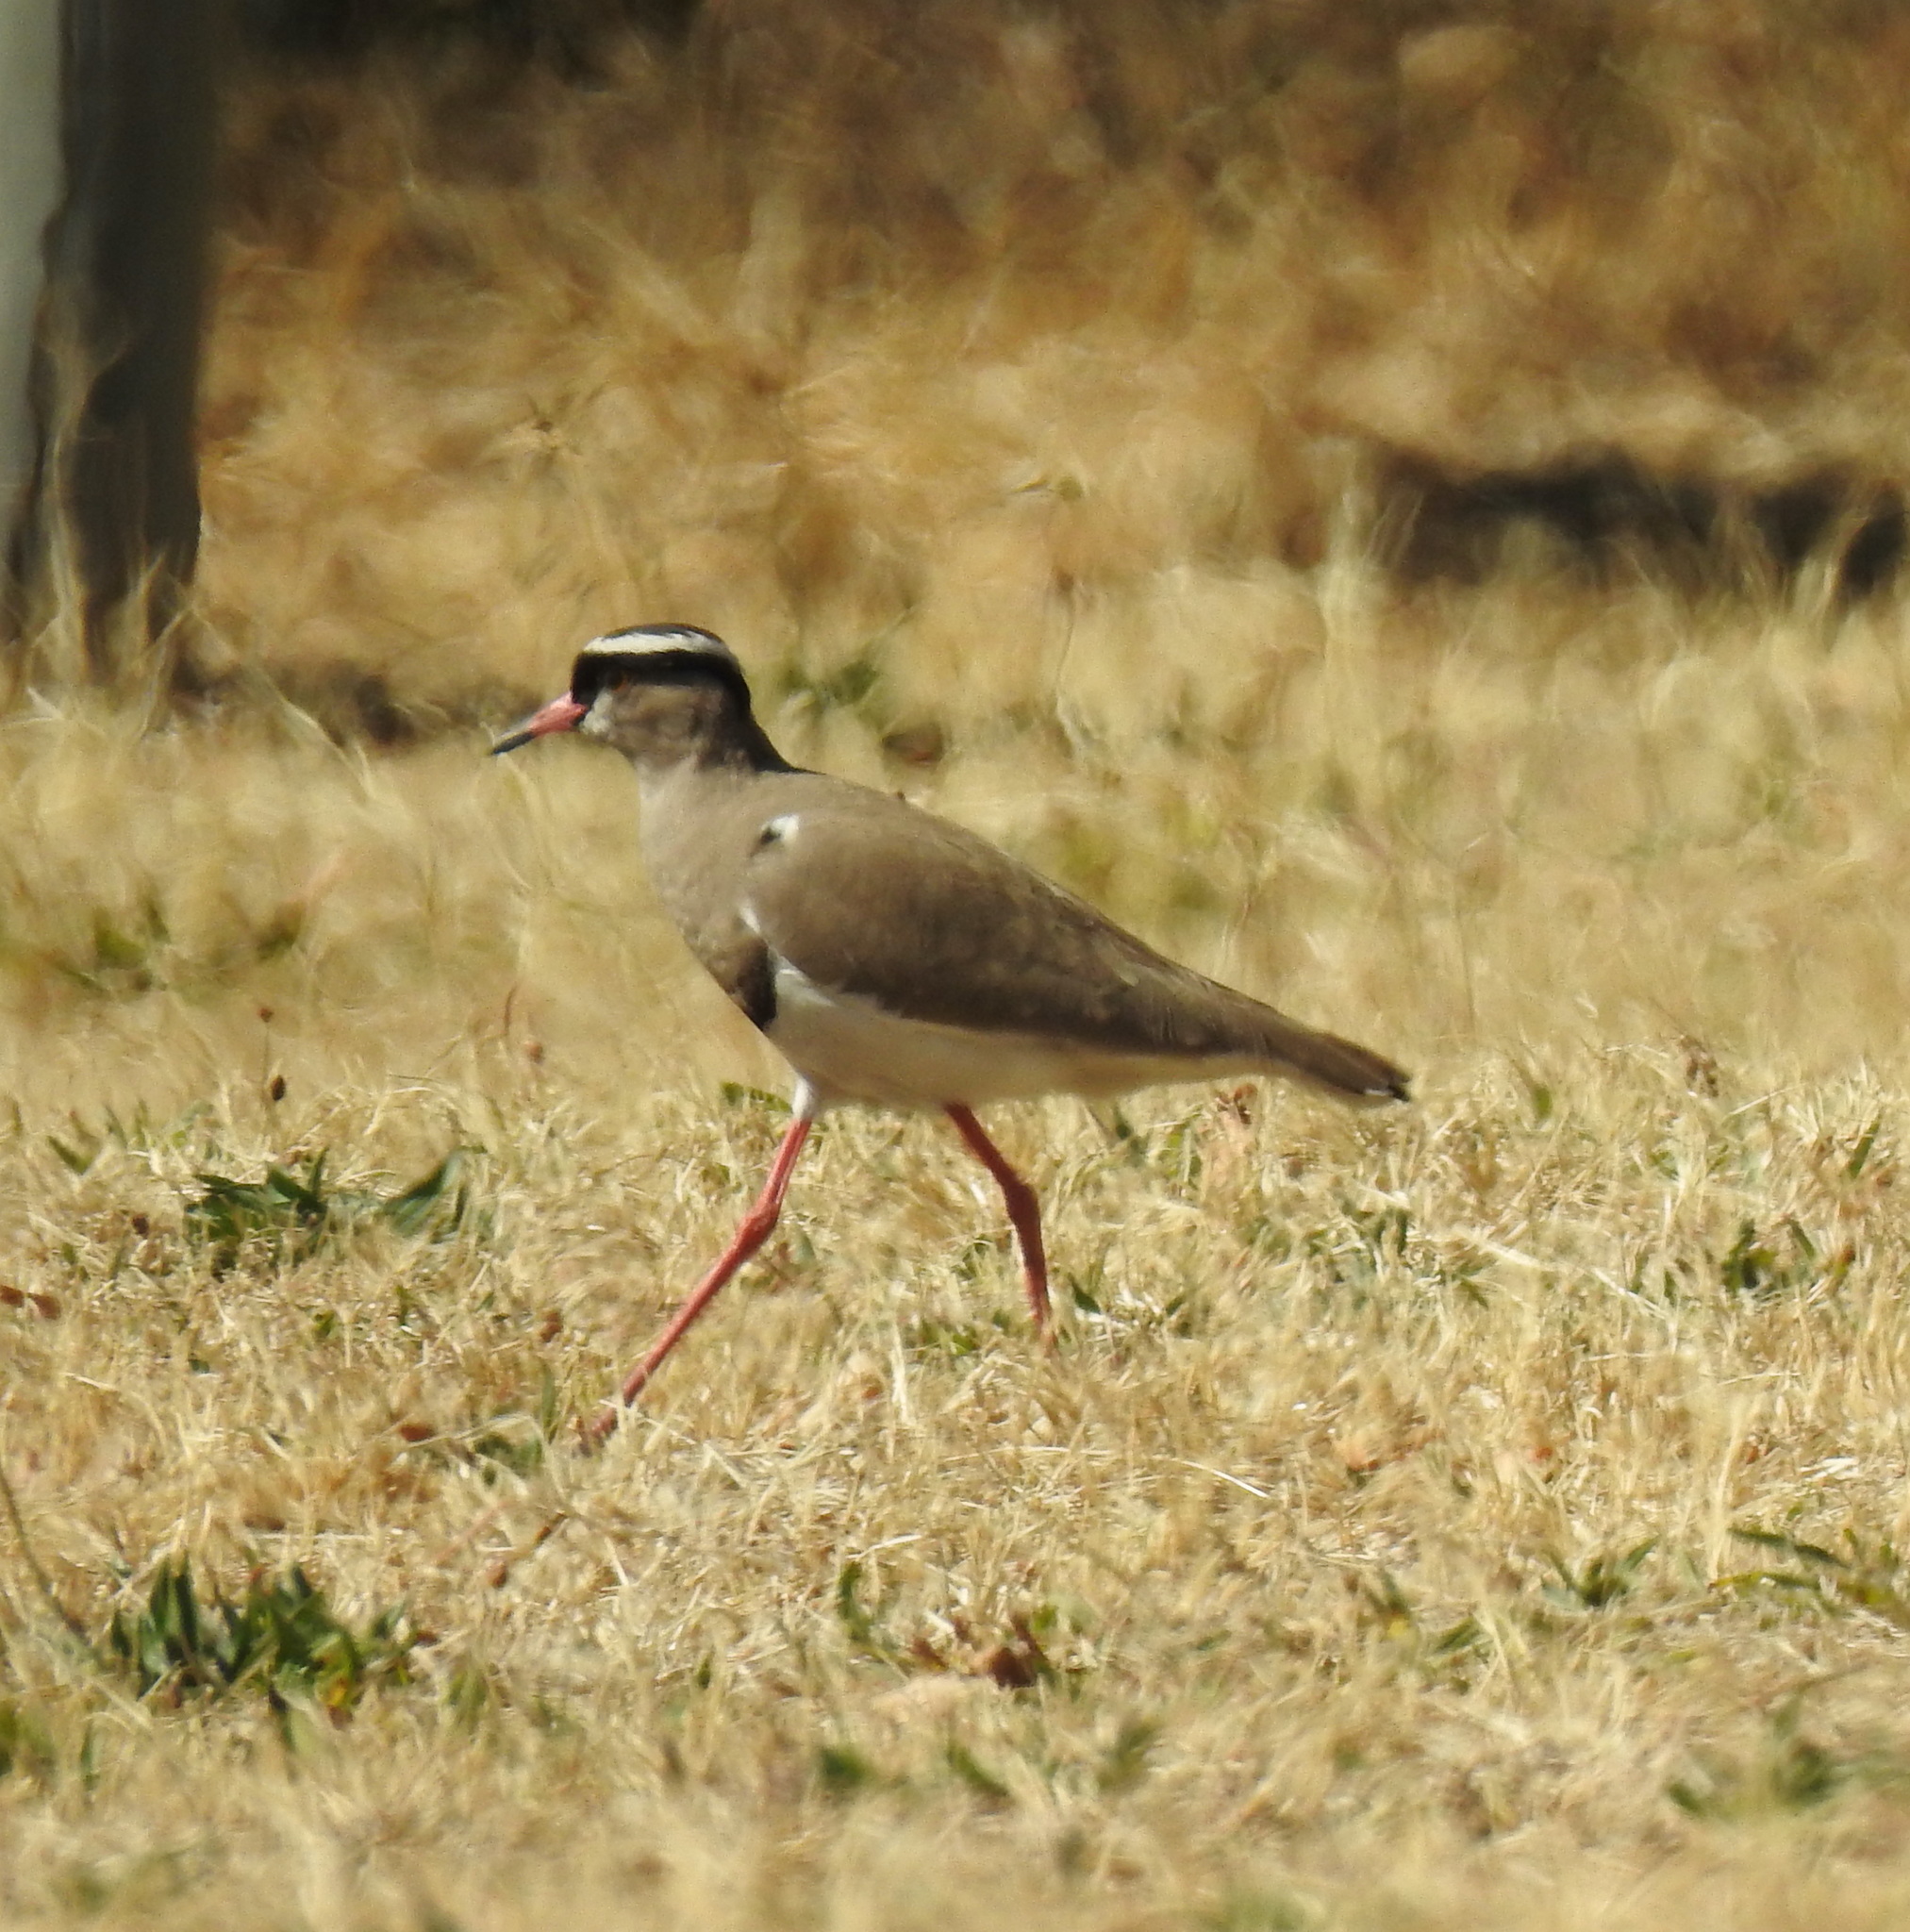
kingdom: Animalia
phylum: Chordata
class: Aves
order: Charadriiformes
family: Charadriidae
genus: Vanellus
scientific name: Vanellus coronatus
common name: Crowned lapwing
